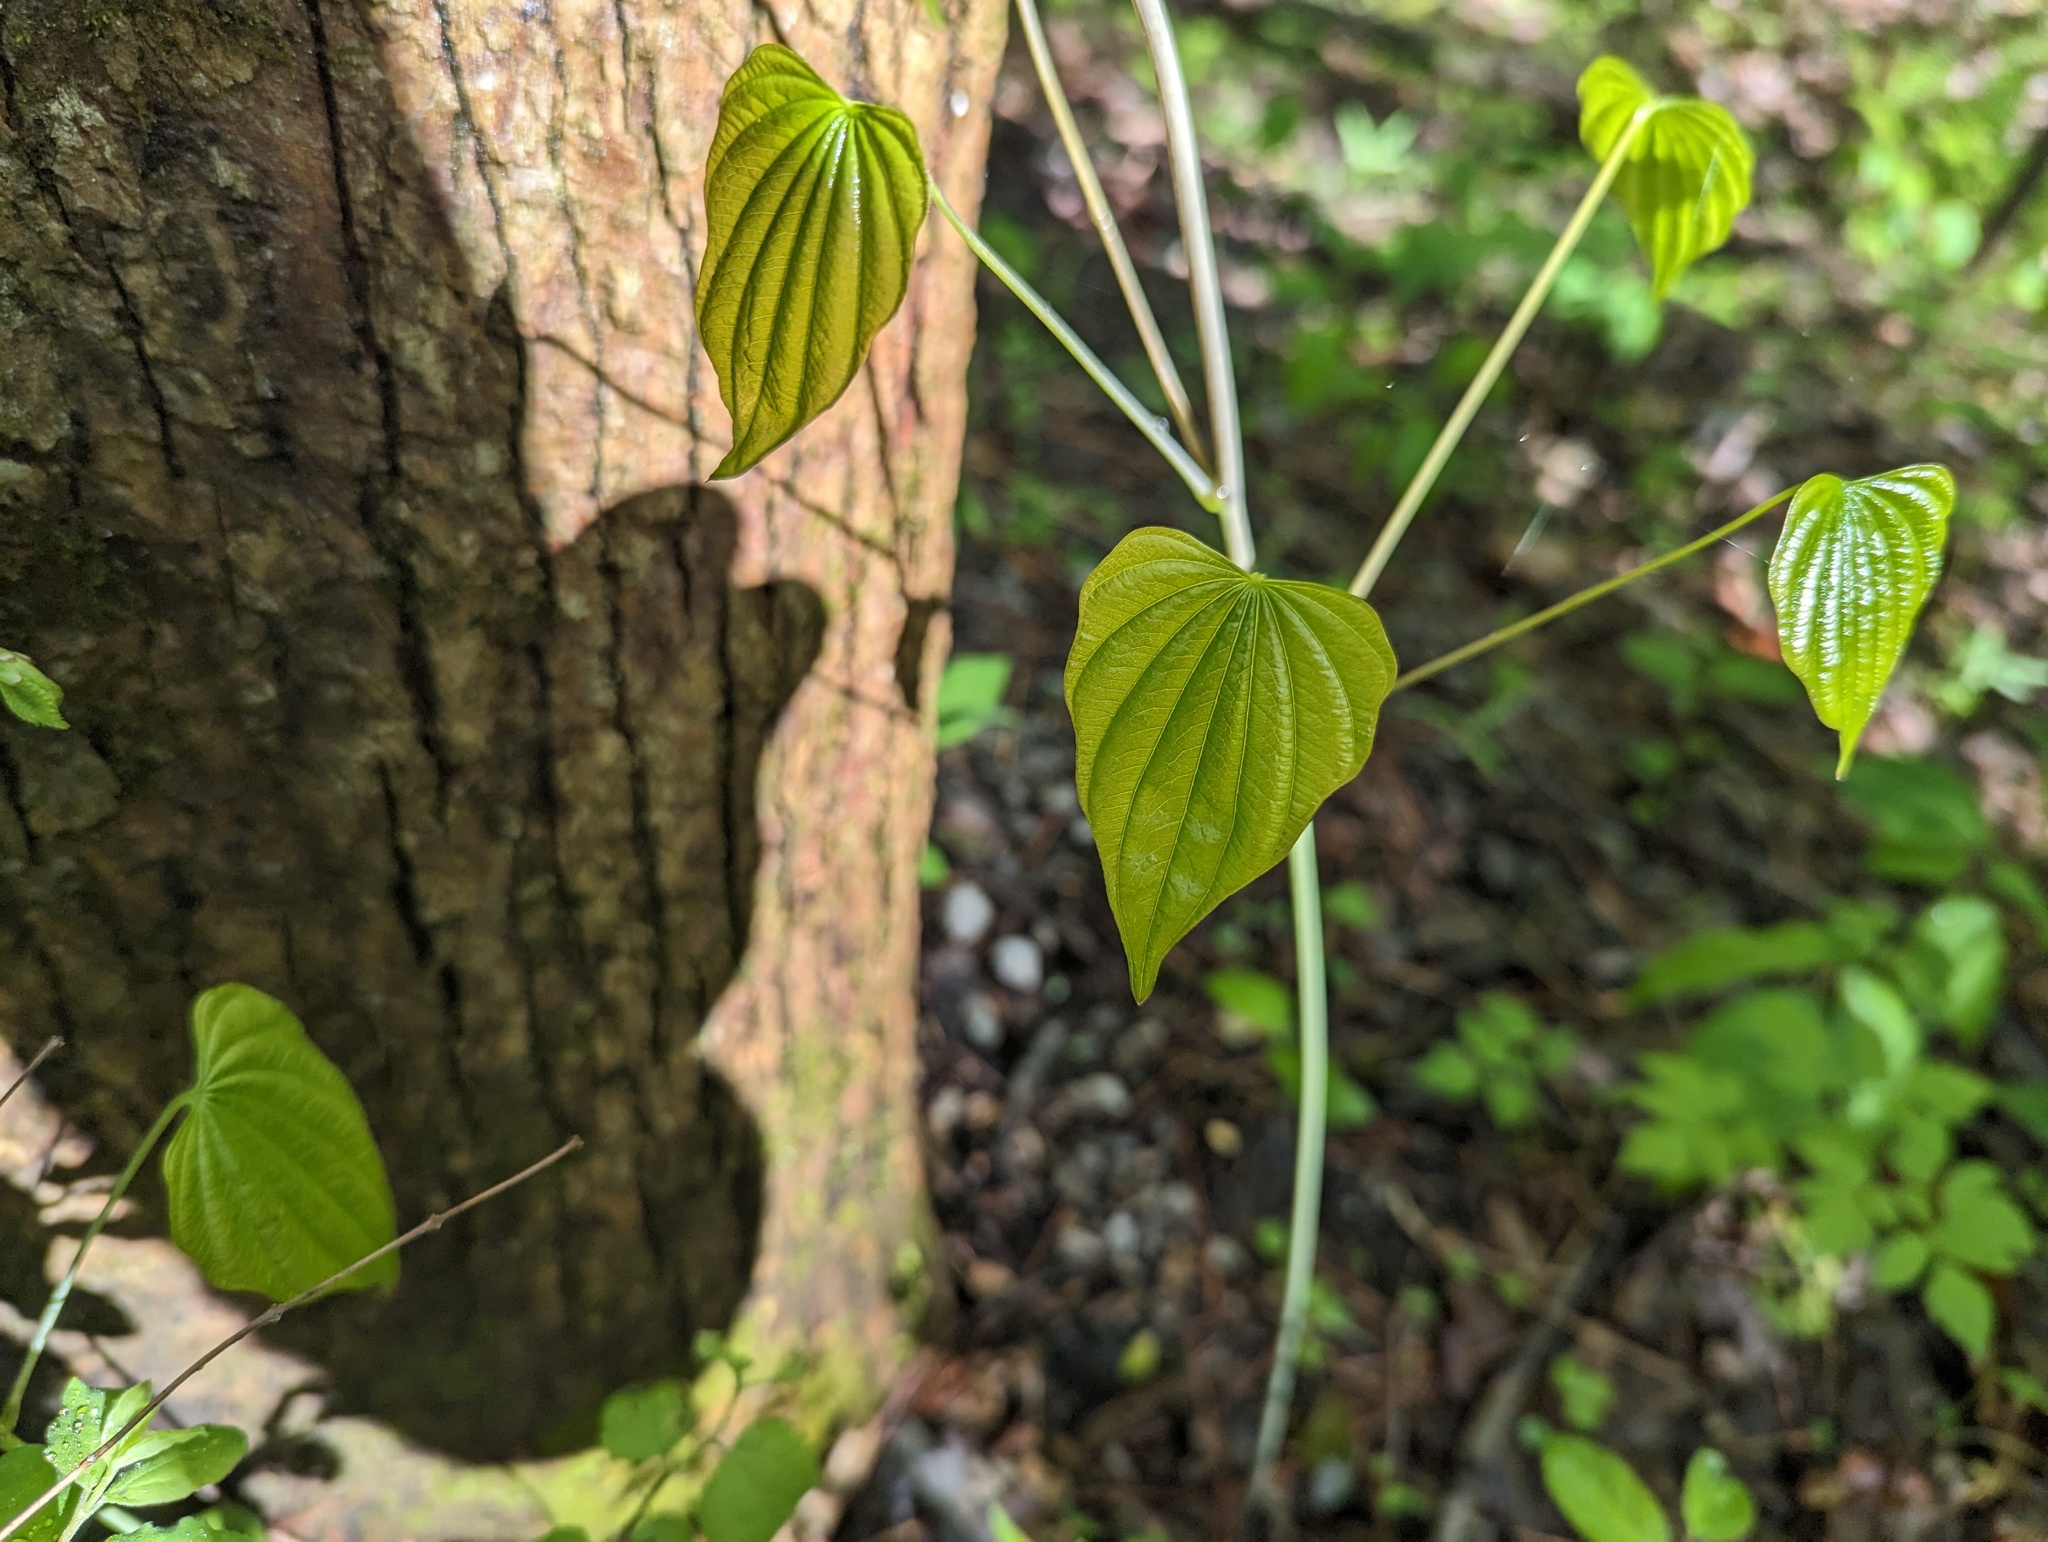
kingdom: Plantae
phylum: Tracheophyta
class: Liliopsida
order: Dioscoreales
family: Dioscoreaceae
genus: Dioscorea
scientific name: Dioscorea villosa
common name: Wild yam
